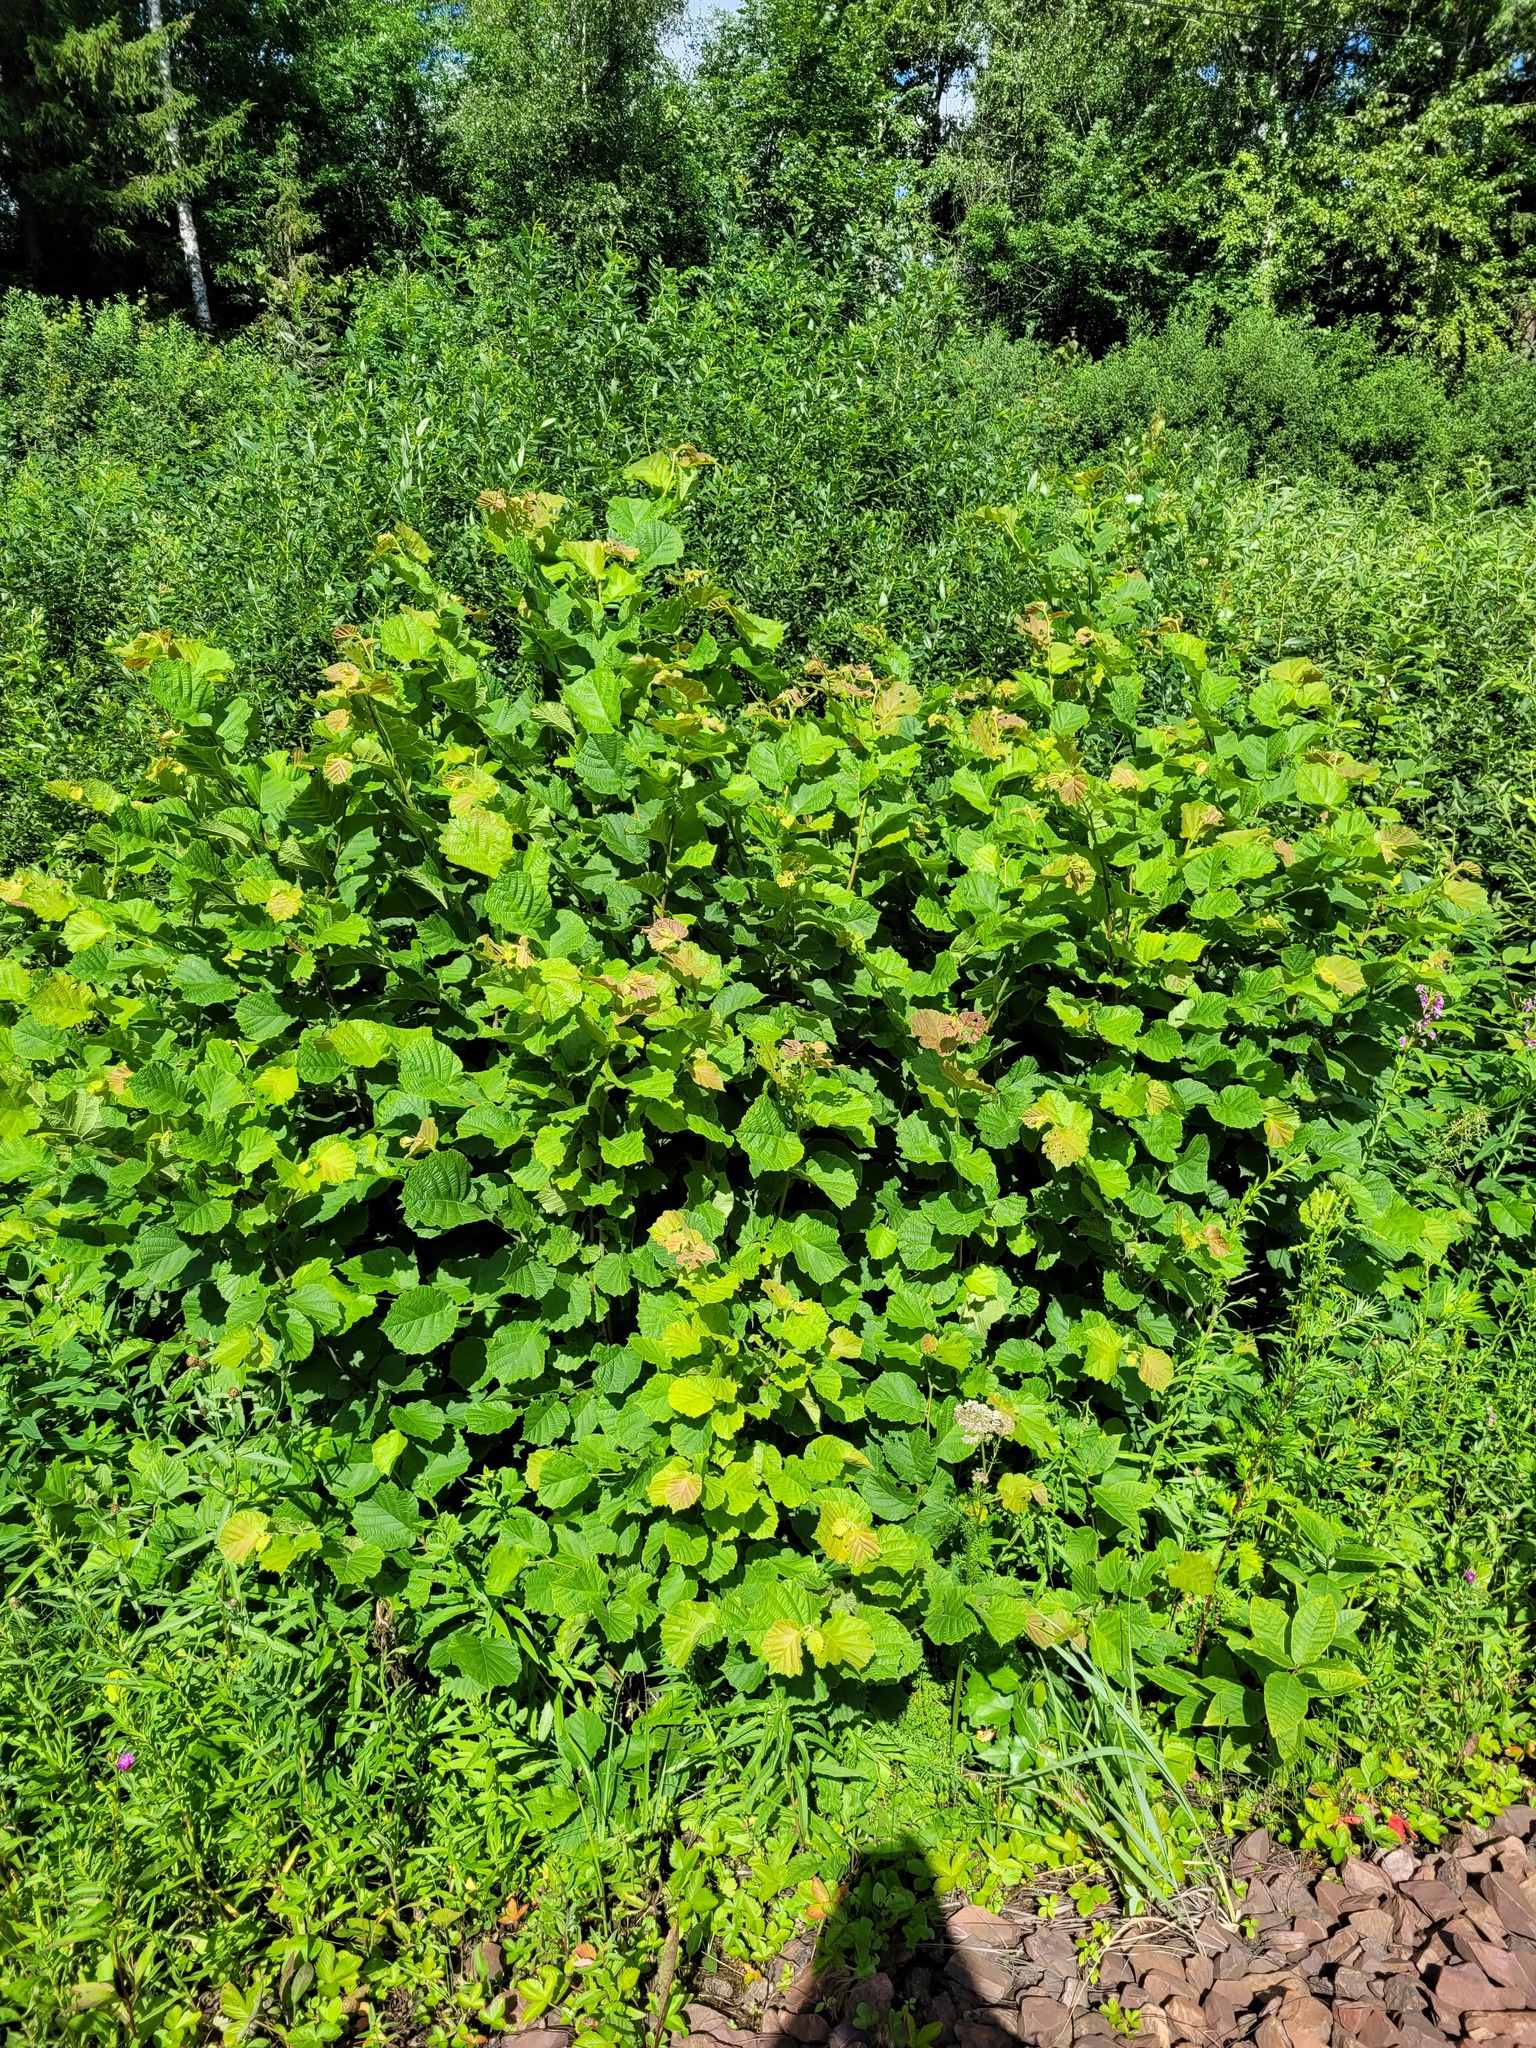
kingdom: Plantae
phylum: Tracheophyta
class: Magnoliopsida
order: Fagales
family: Betulaceae
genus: Corylus
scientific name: Corylus avellana
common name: European hazel
